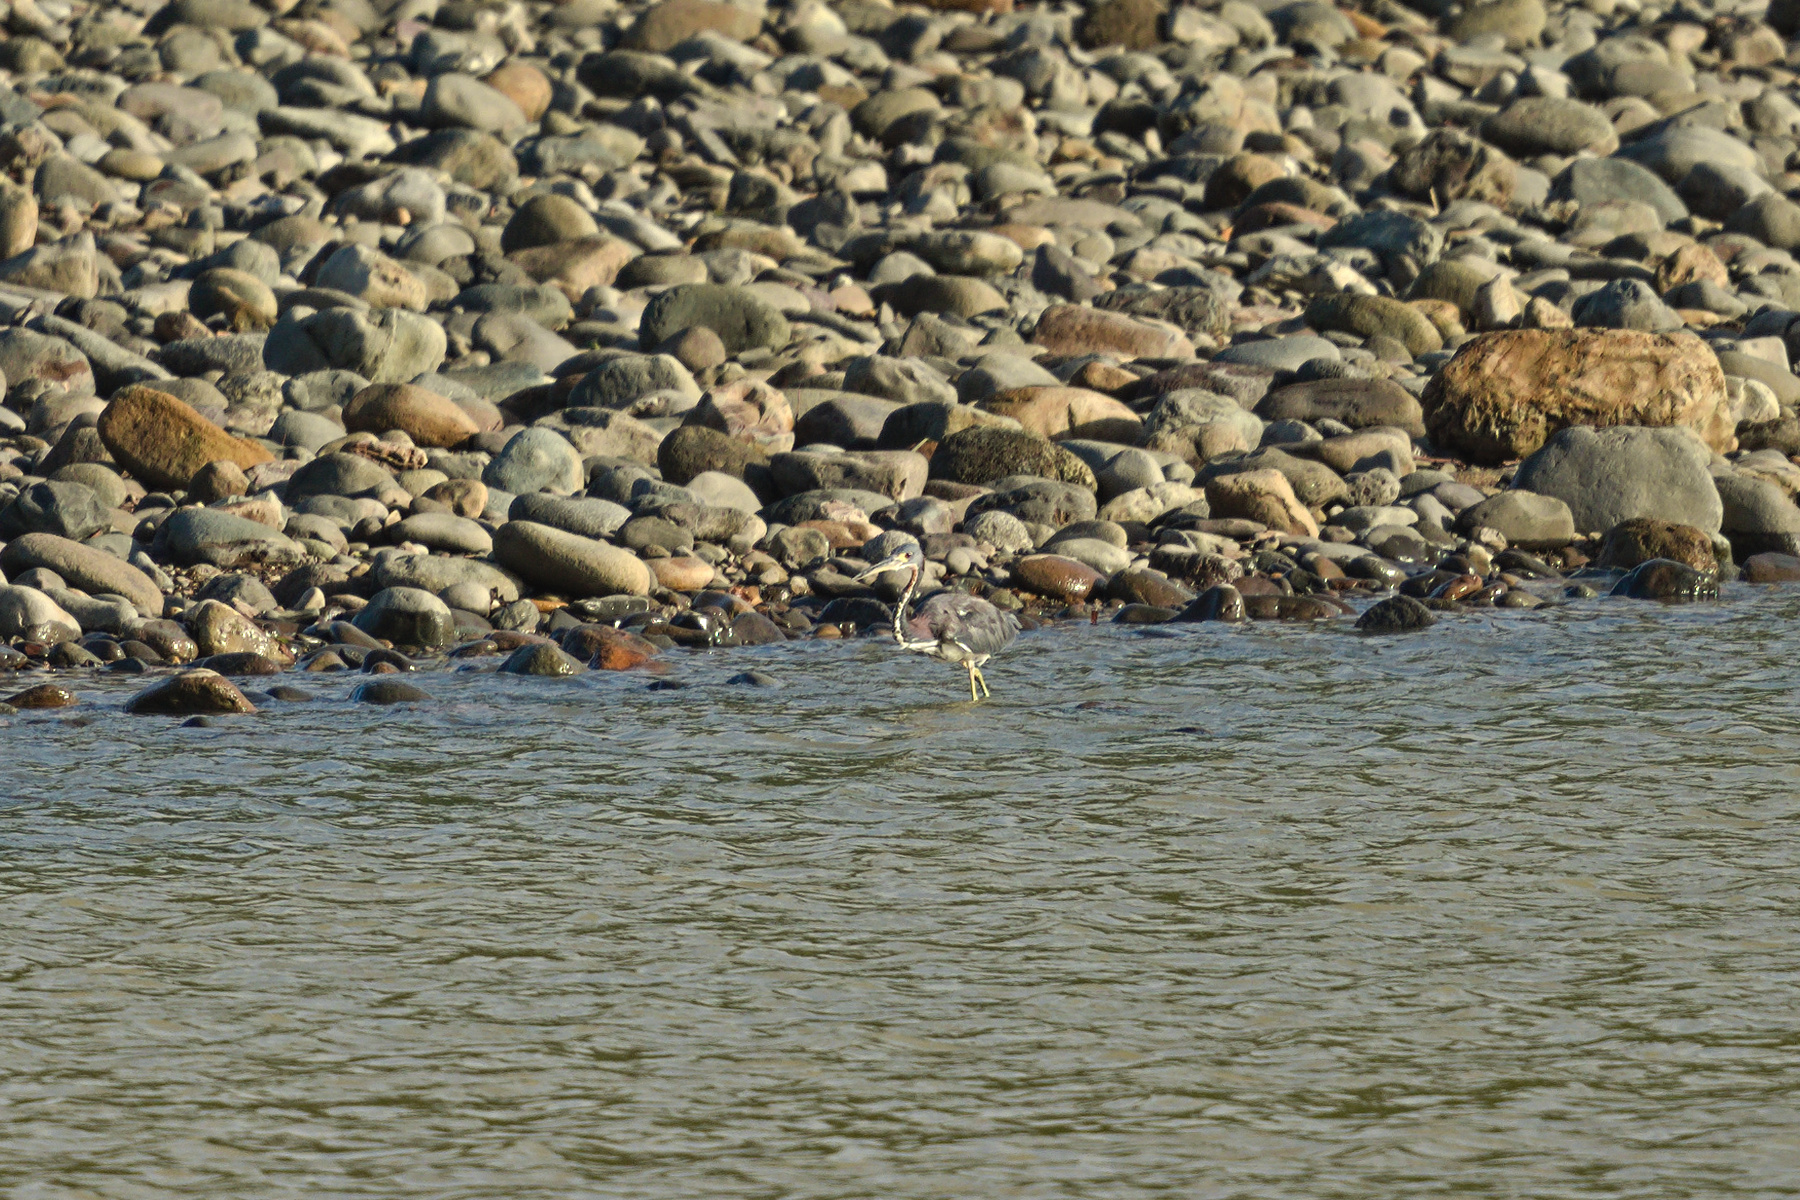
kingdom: Animalia
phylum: Chordata
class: Aves
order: Pelecaniformes
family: Ardeidae
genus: Egretta
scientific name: Egretta tricolor
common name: Tricolored heron
